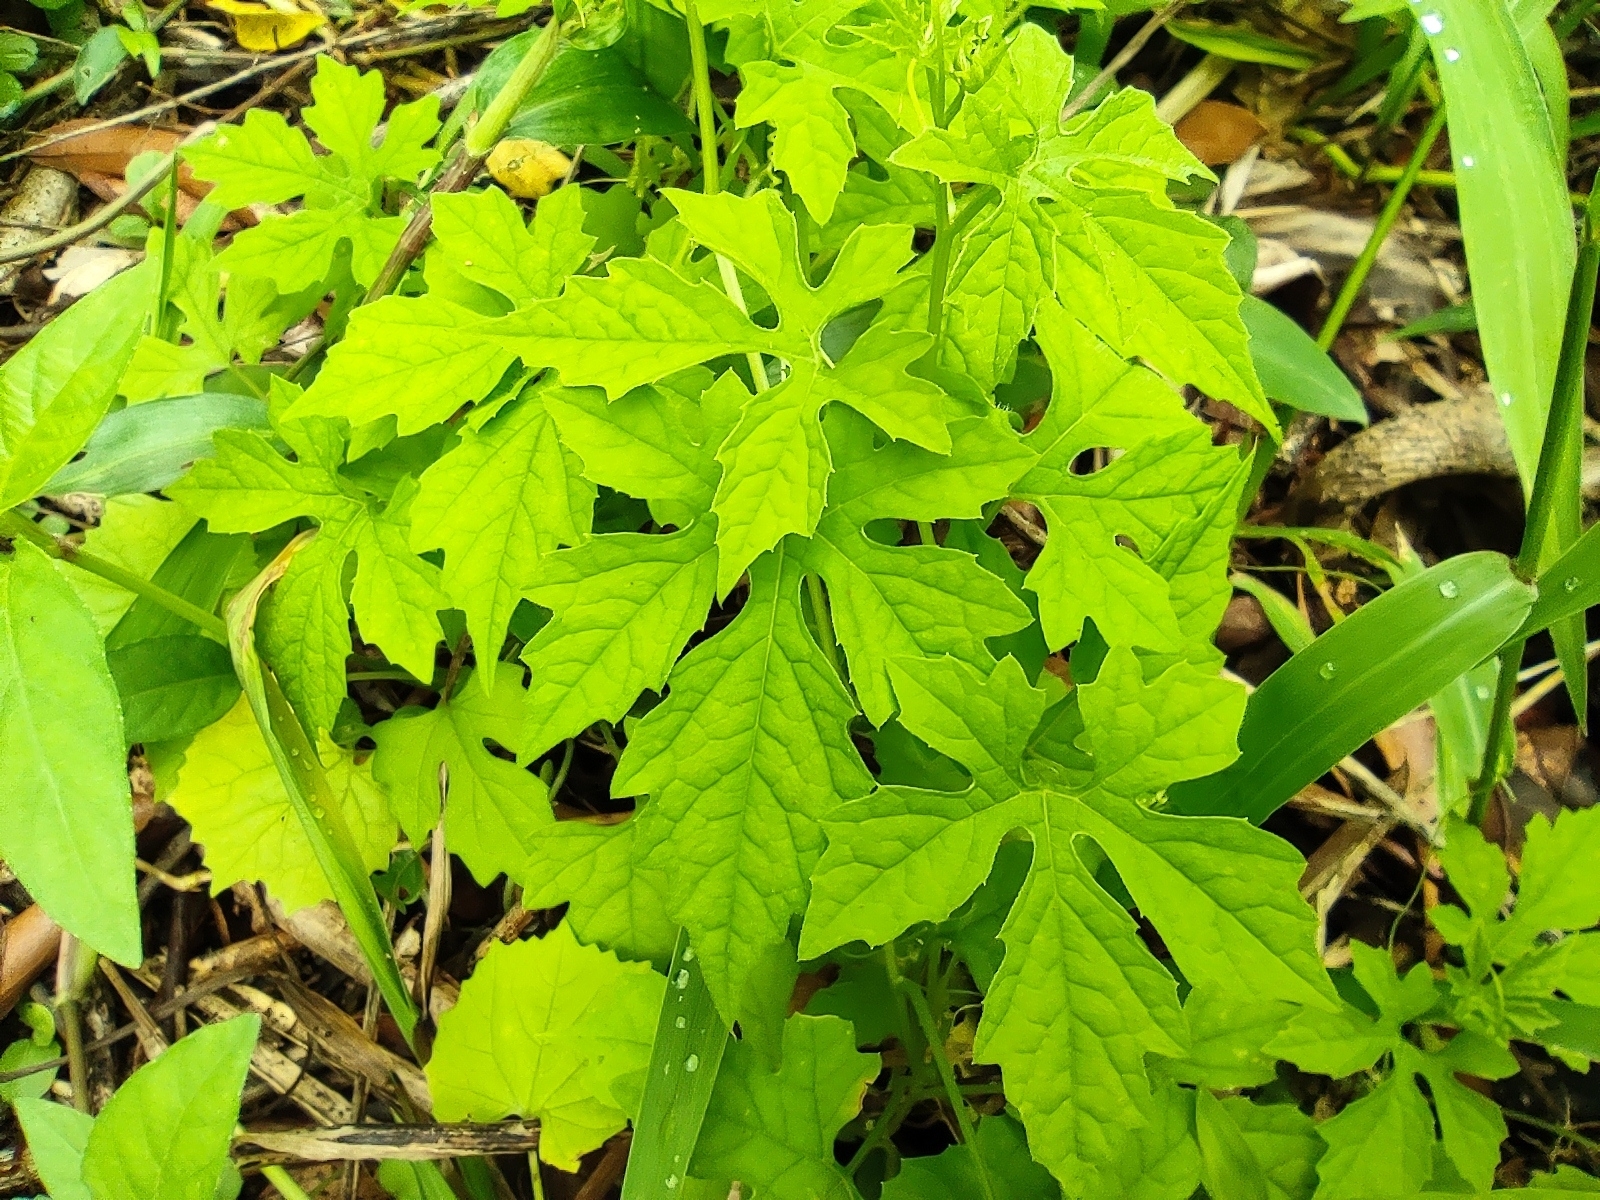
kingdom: Plantae
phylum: Tracheophyta
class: Magnoliopsida
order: Cucurbitales
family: Cucurbitaceae
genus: Momordica
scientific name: Momordica charantia
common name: Balsampear
